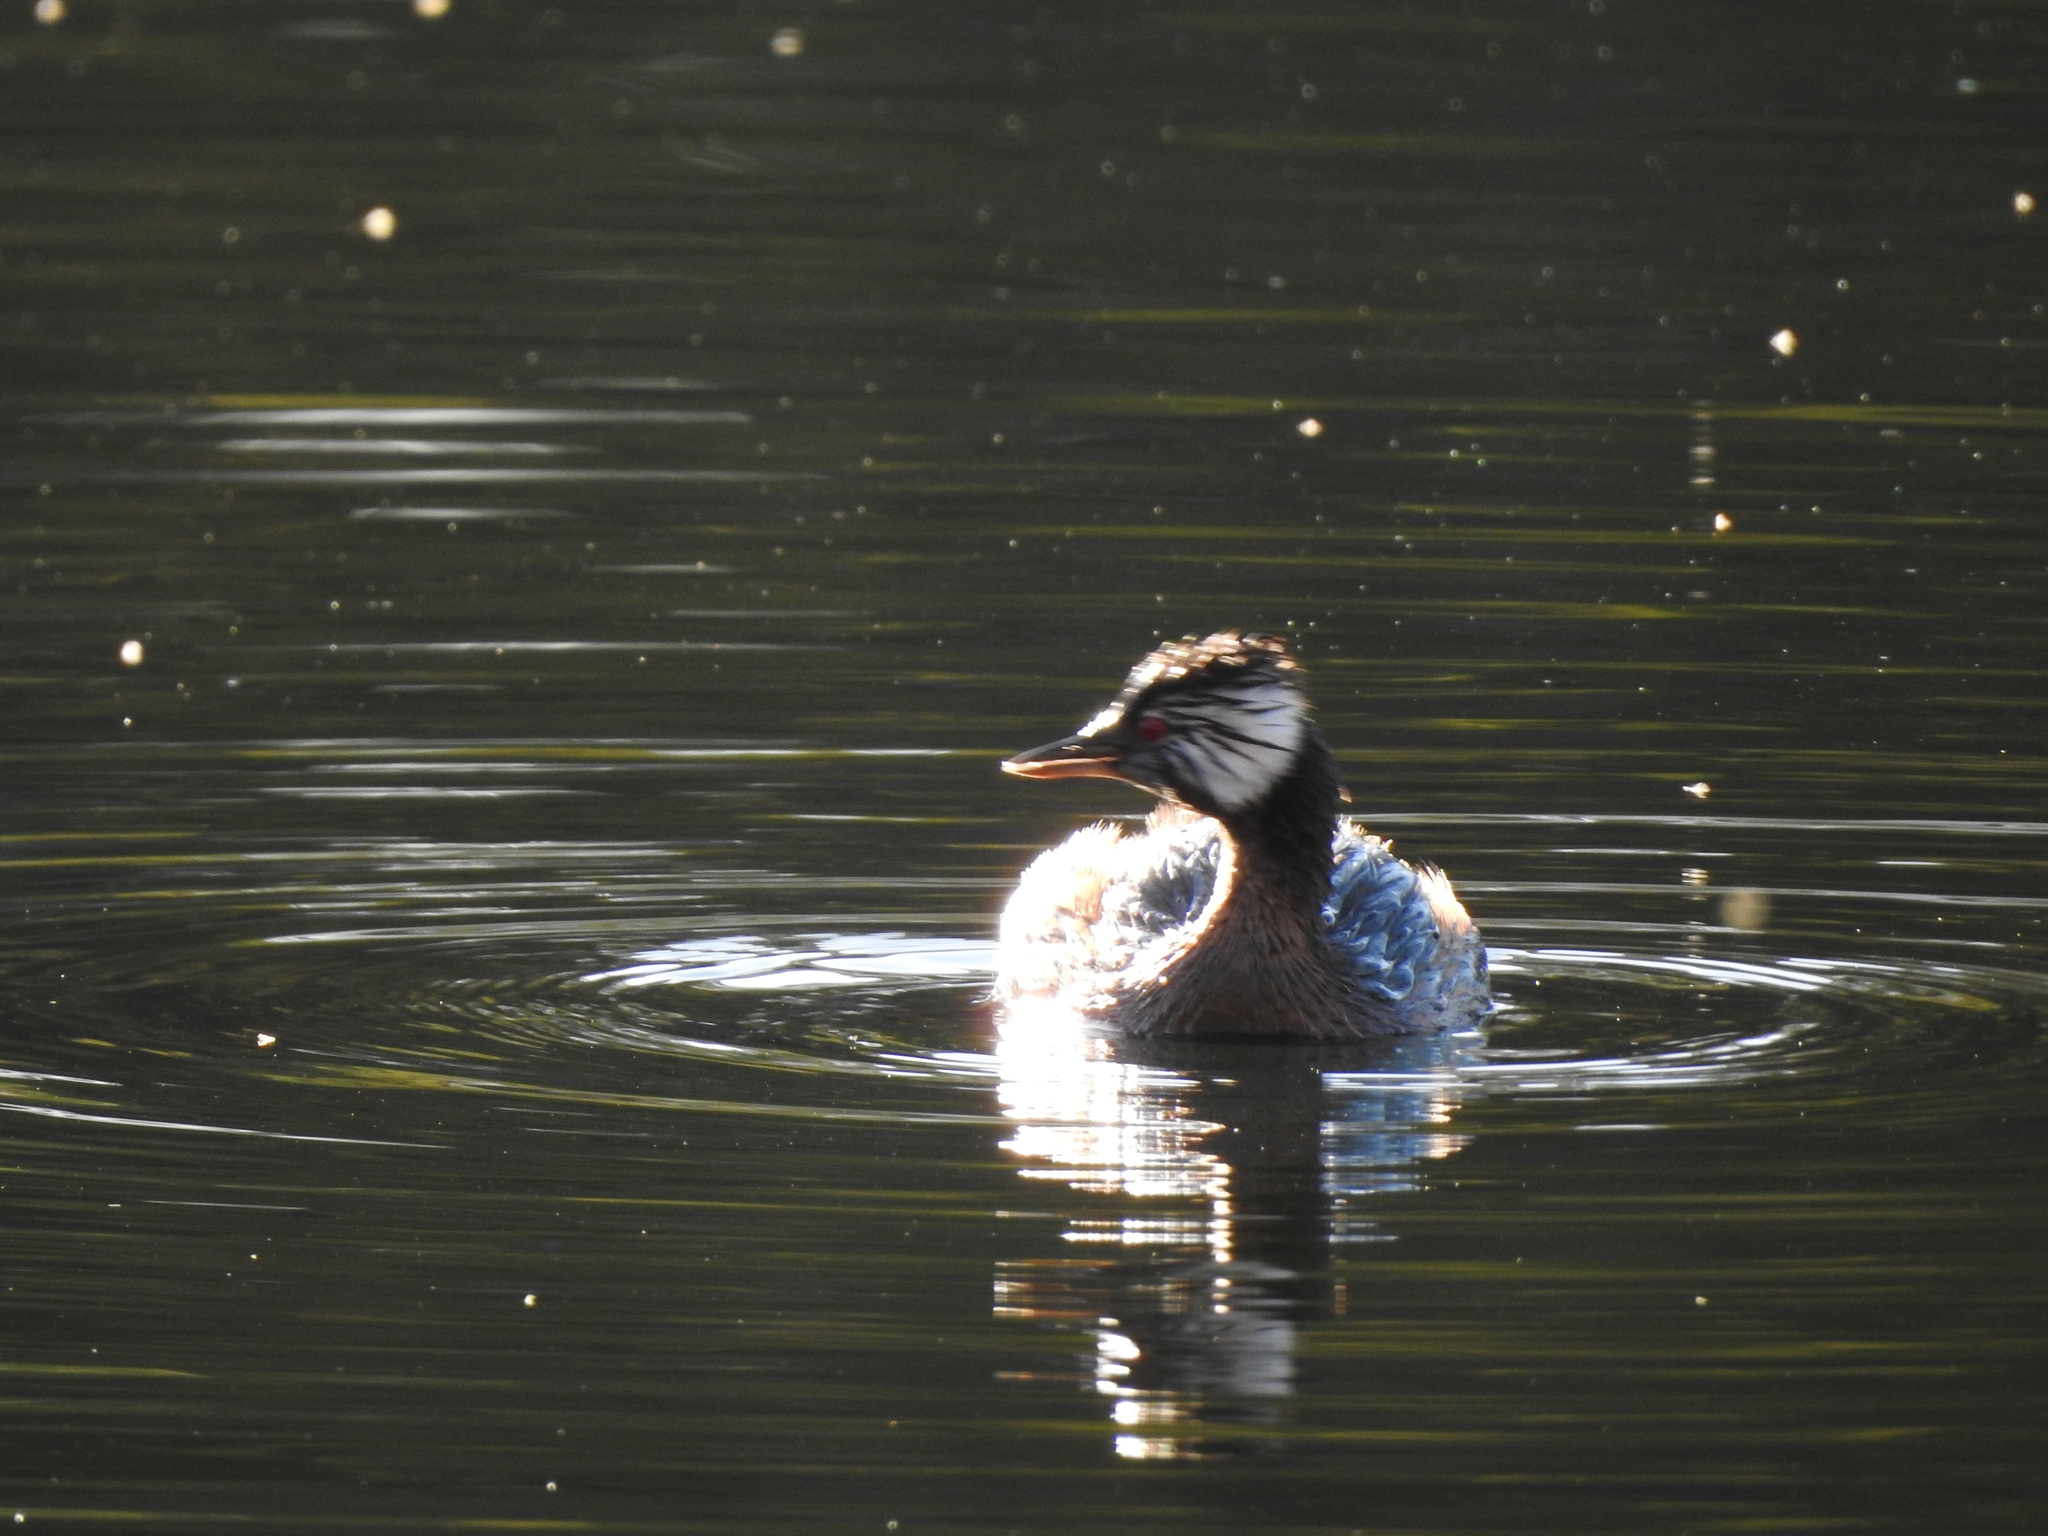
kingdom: Animalia
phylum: Chordata
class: Aves
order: Podicipediformes
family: Podicipedidae
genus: Rollandia
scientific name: Rollandia rolland
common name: White-tufted grebe
